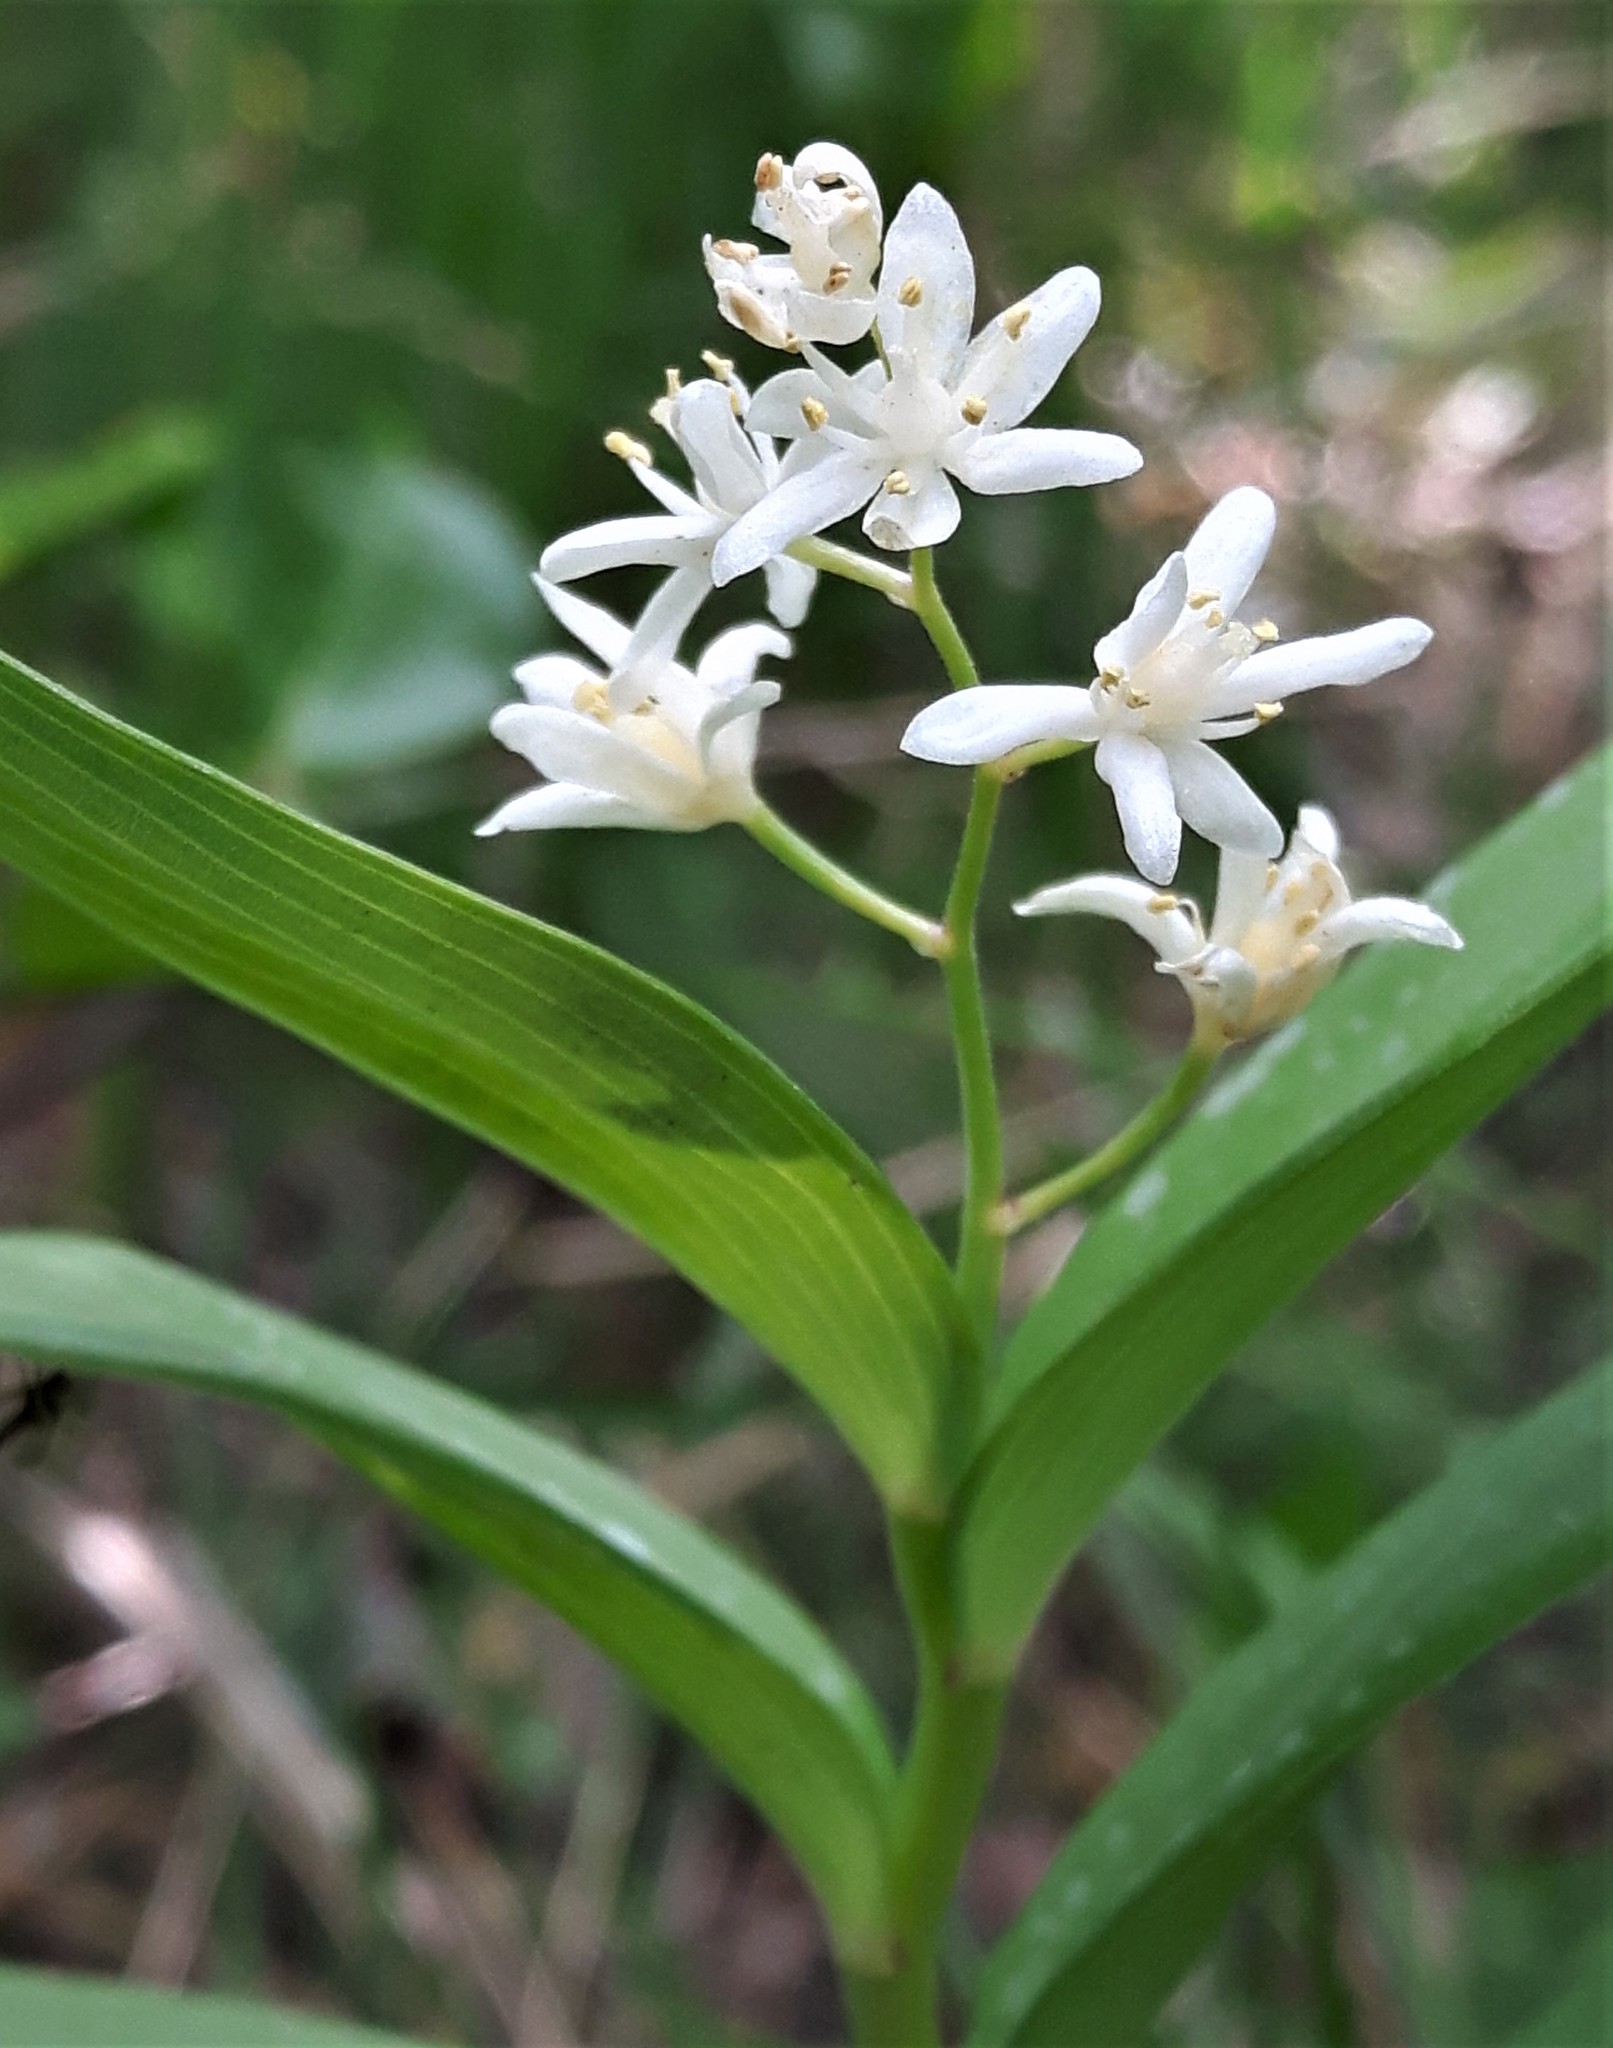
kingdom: Plantae
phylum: Tracheophyta
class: Liliopsida
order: Asparagales
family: Asparagaceae
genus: Maianthemum
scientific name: Maianthemum stellatum
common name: Little false solomon's seal
